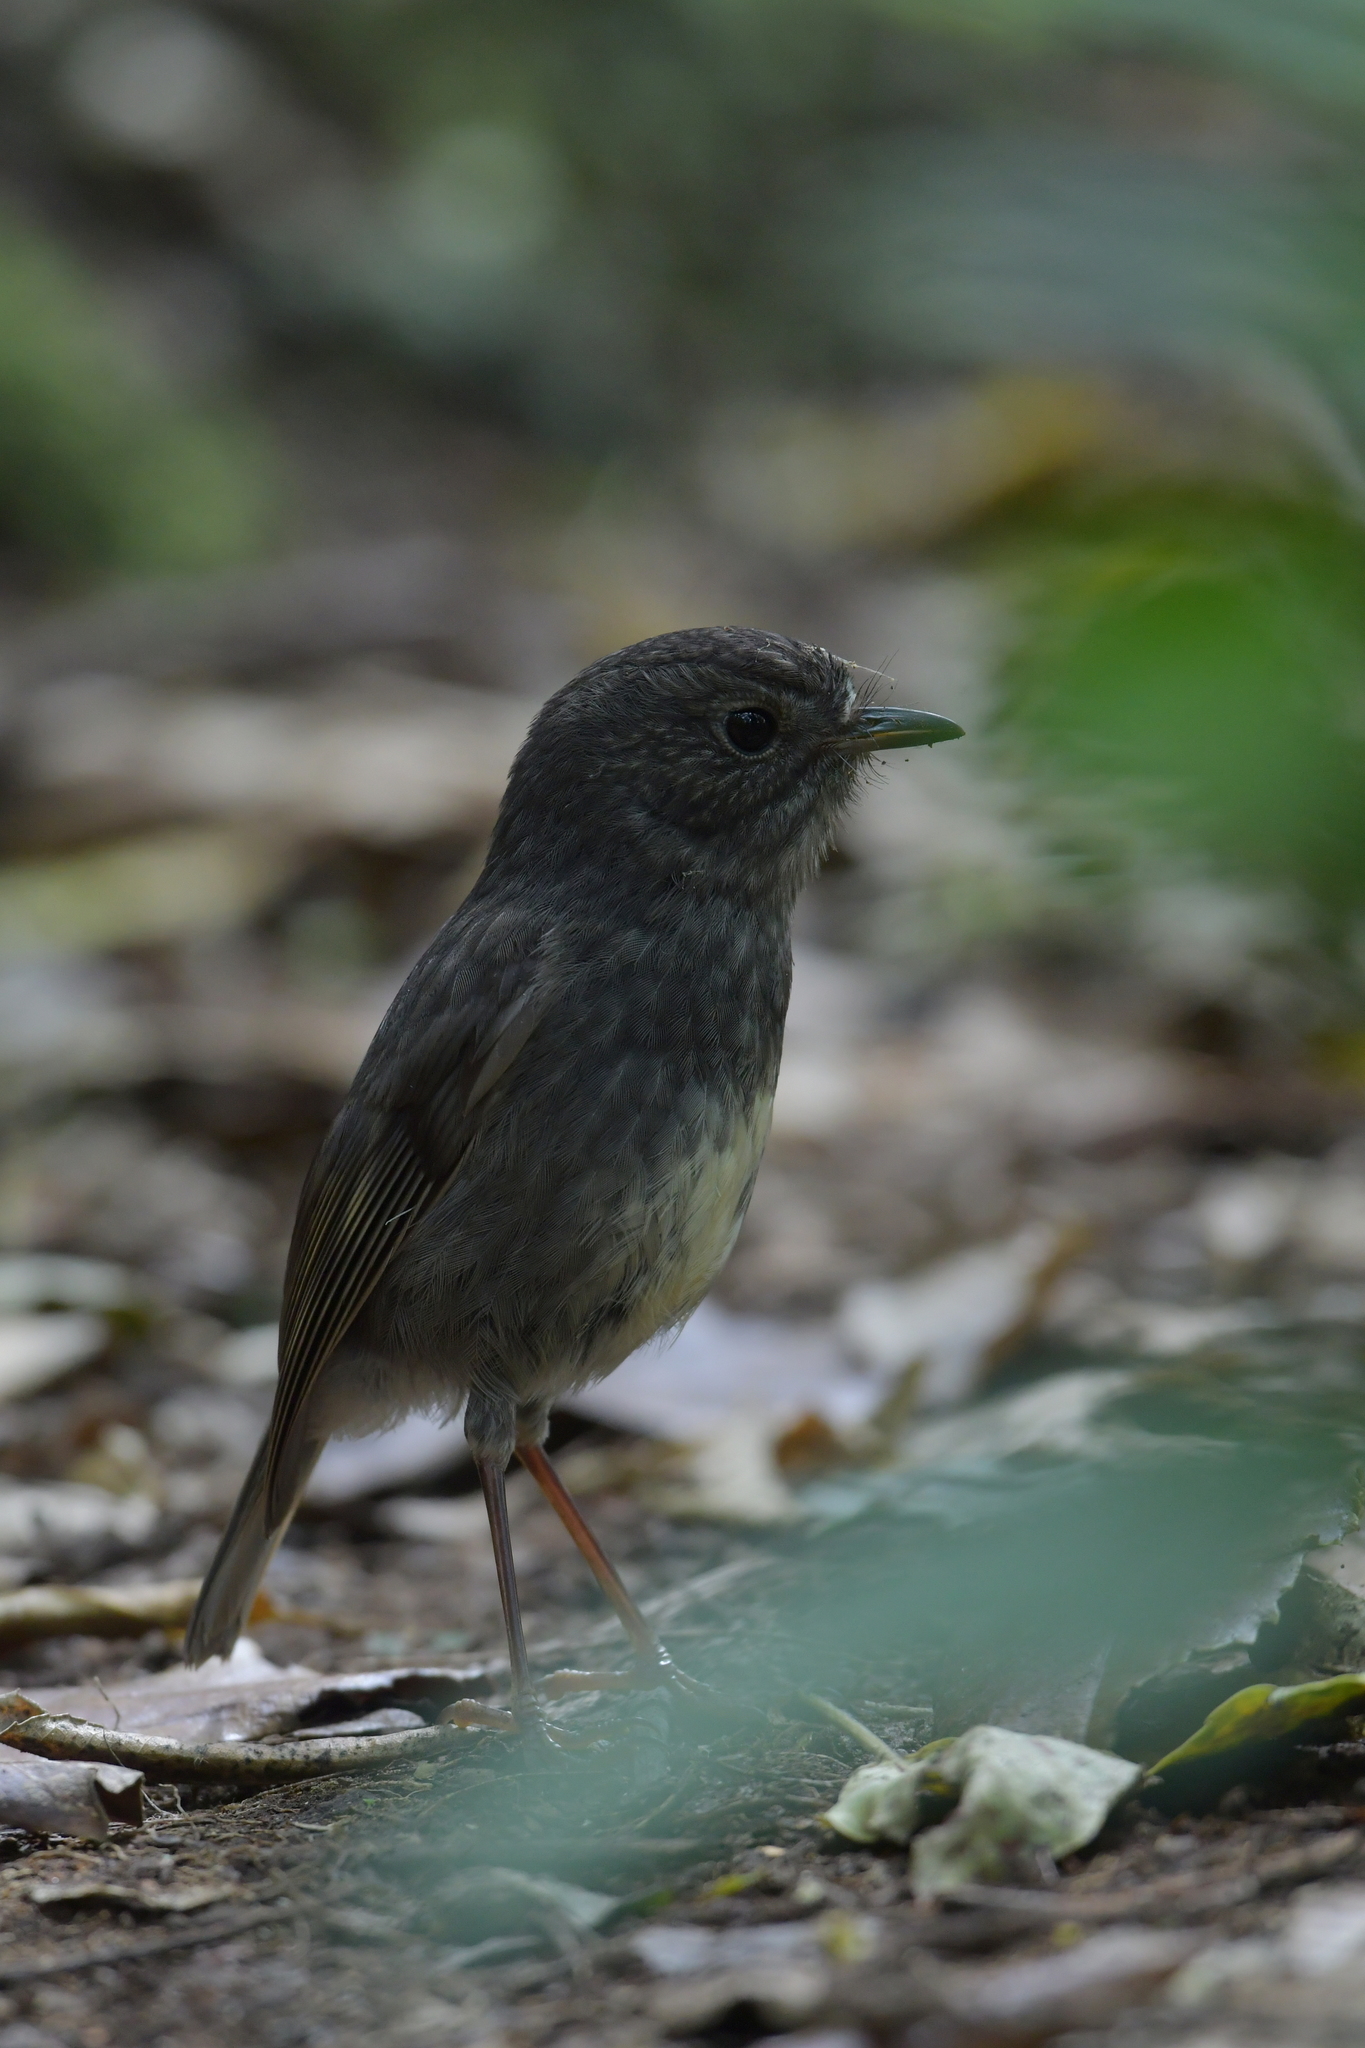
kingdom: Animalia
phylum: Chordata
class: Aves
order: Passeriformes
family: Petroicidae
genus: Petroica
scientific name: Petroica australis
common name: New zealand robin
